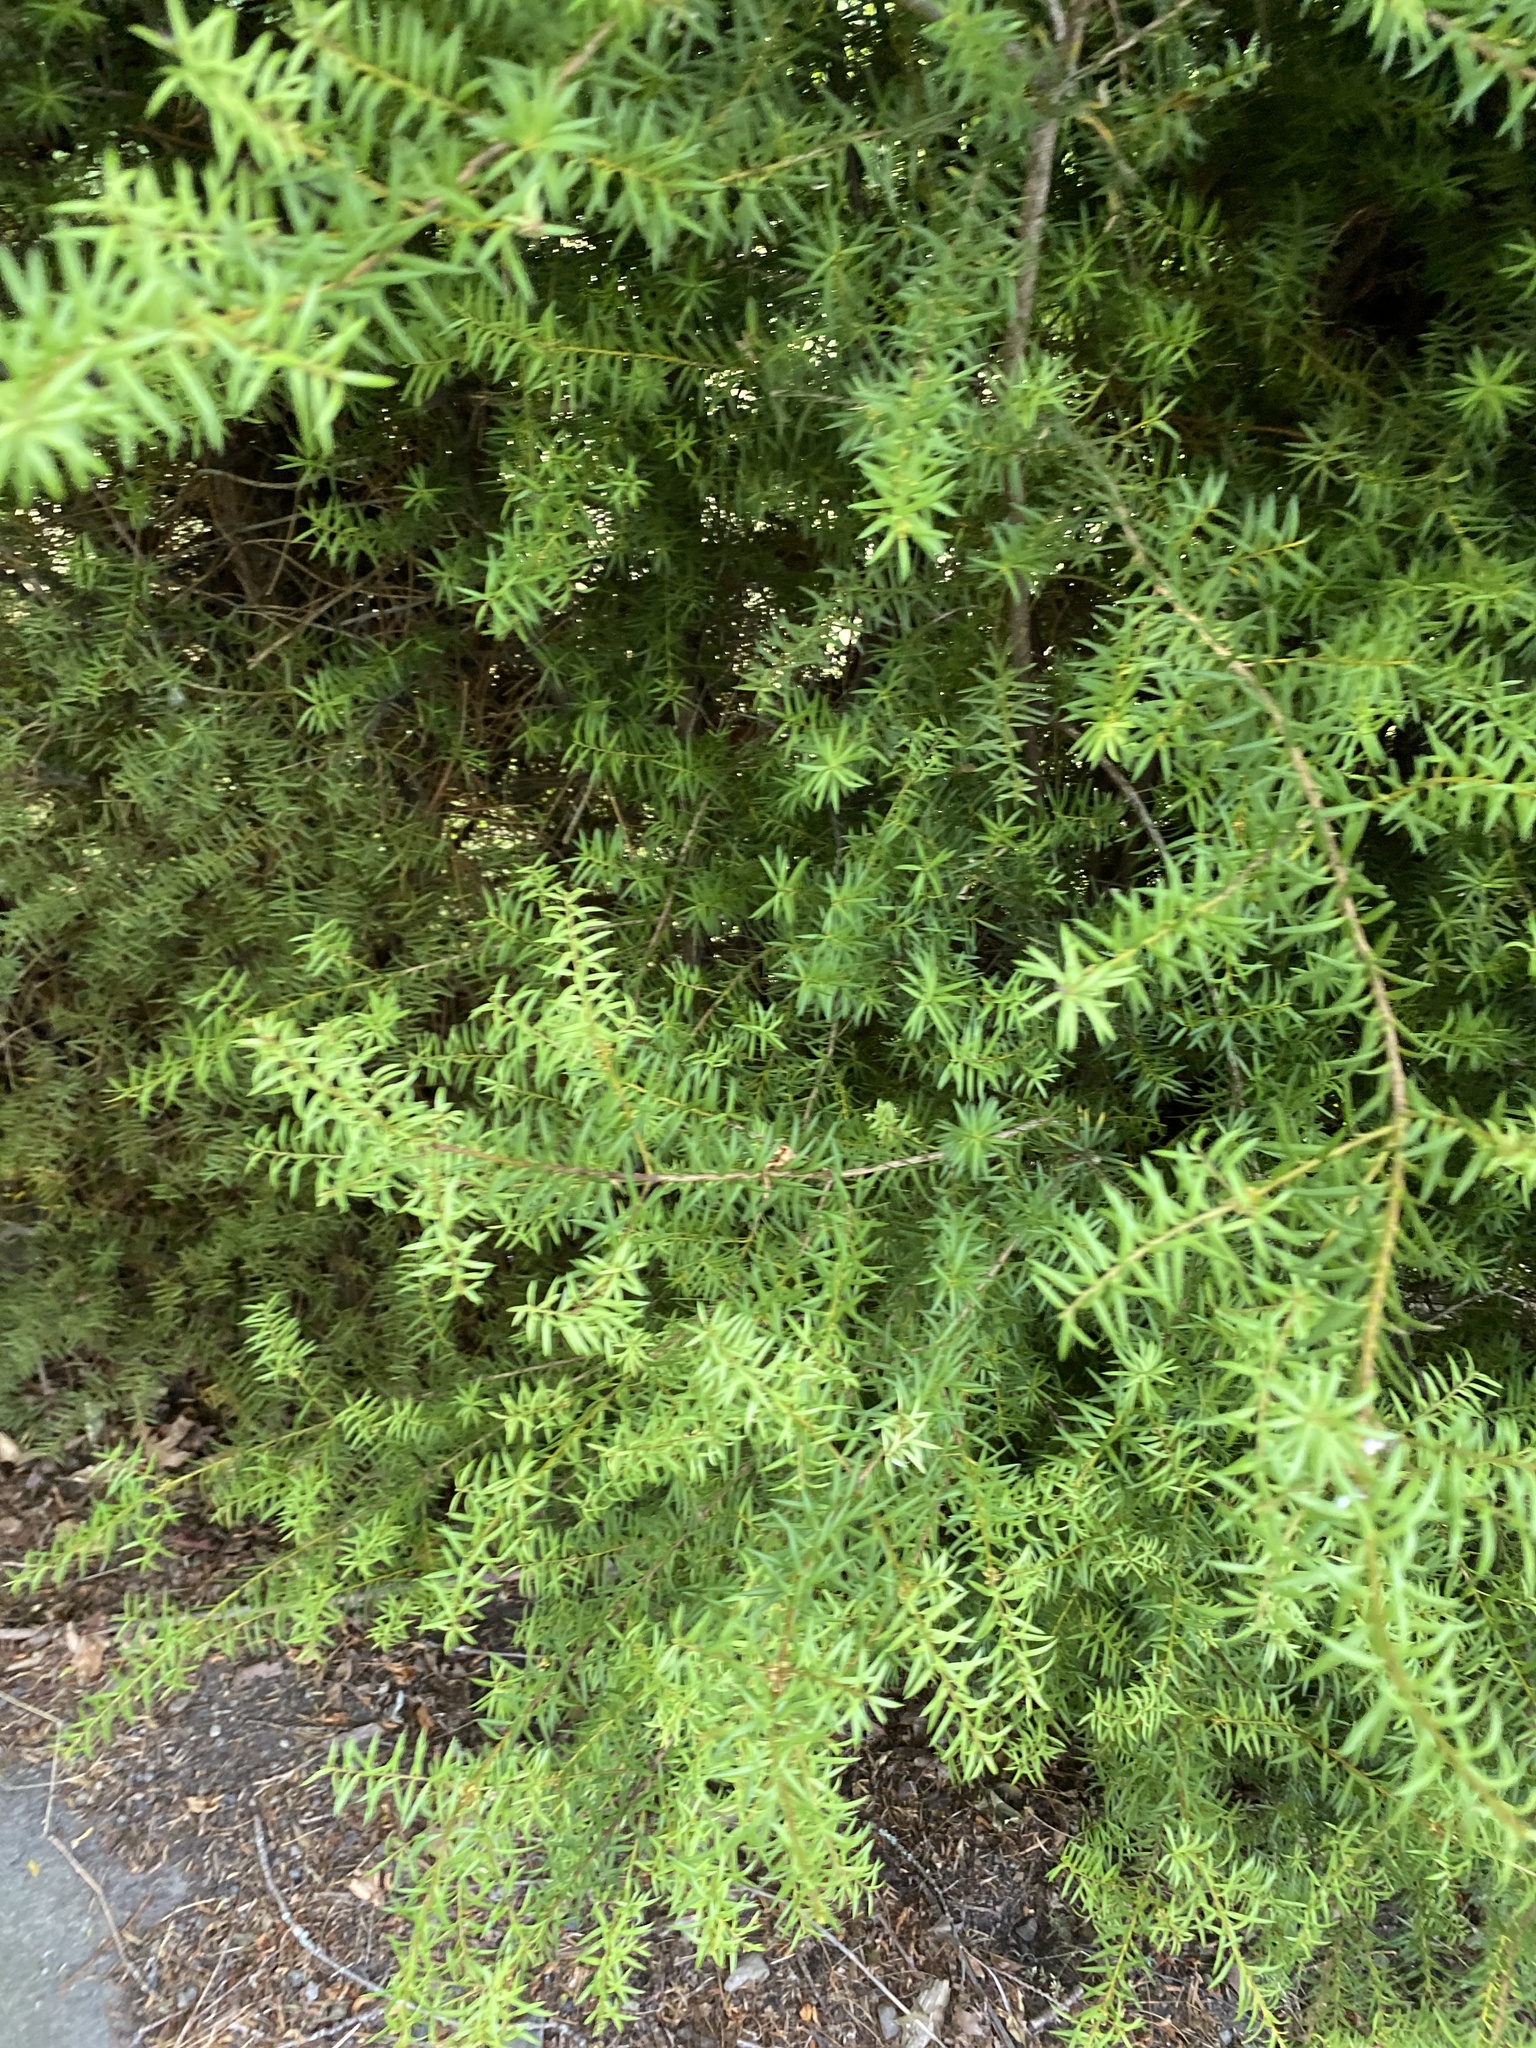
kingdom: Plantae
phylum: Tracheophyta
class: Pinopsida
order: Pinales
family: Podocarpaceae
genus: Podocarpus
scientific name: Podocarpus totara
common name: Totara
